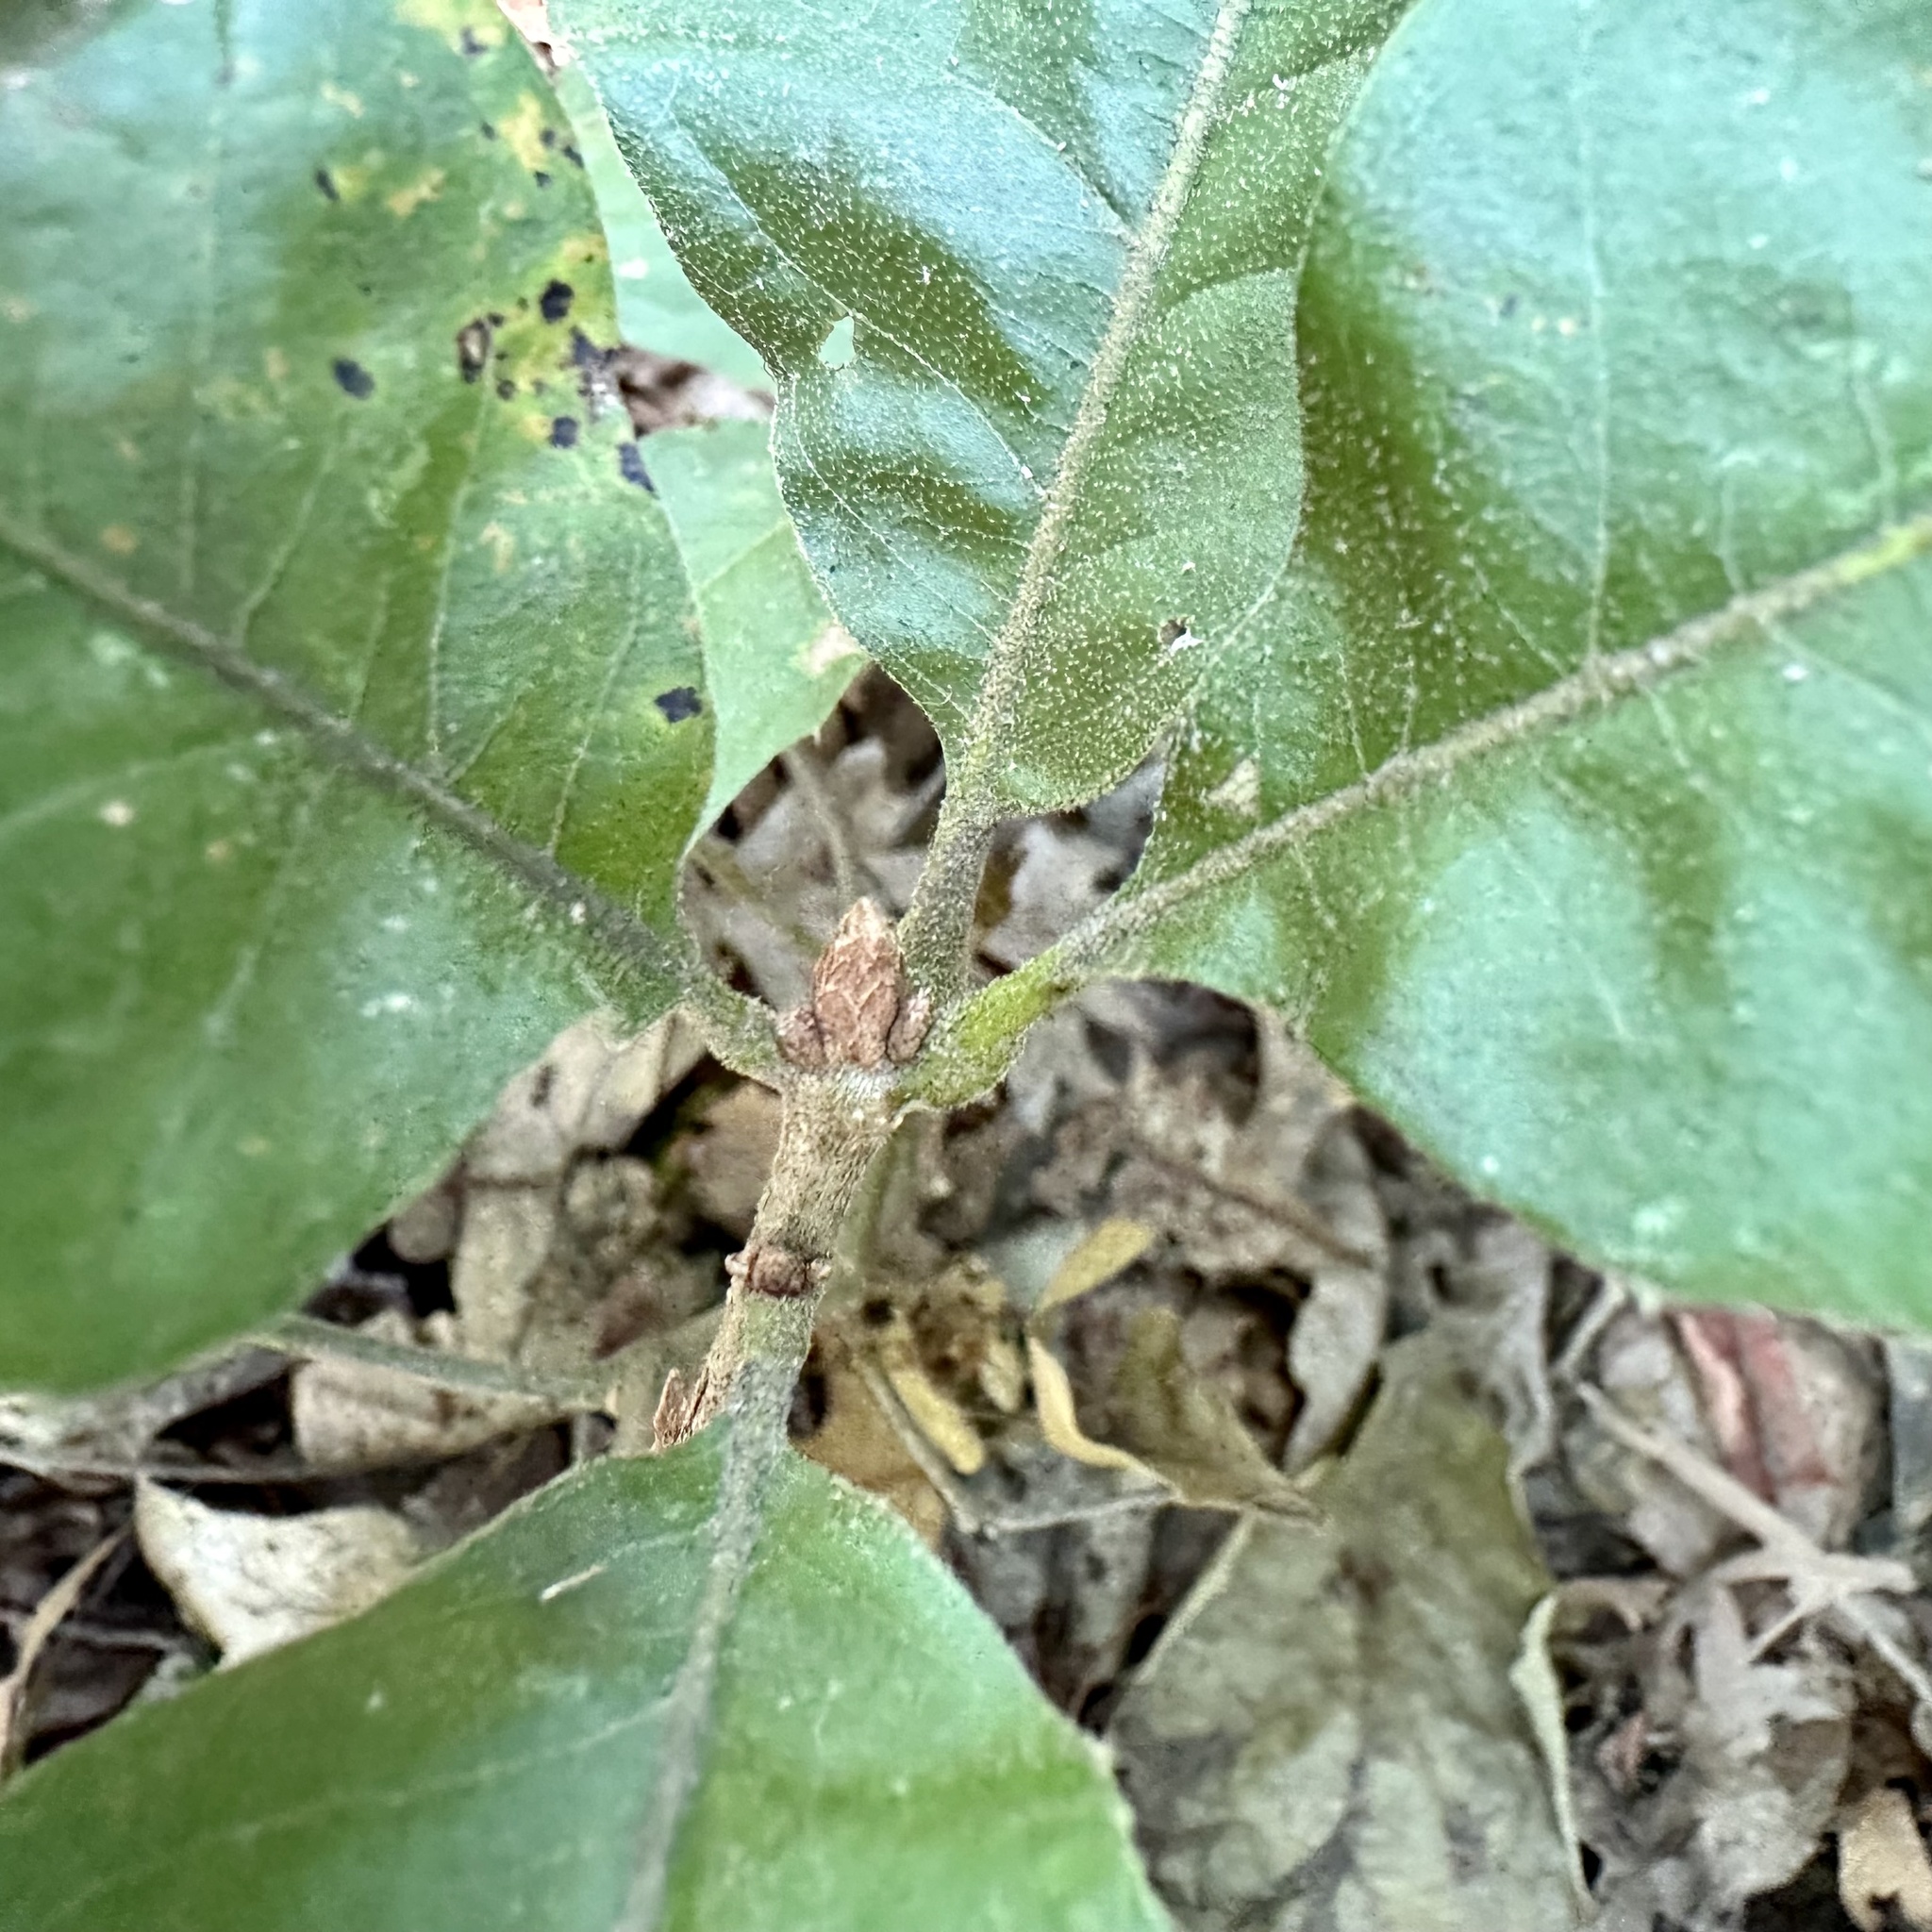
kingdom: Plantae
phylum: Tracheophyta
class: Magnoliopsida
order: Fagales
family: Fagaceae
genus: Quercus
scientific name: Quercus velutina
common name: Black oak
